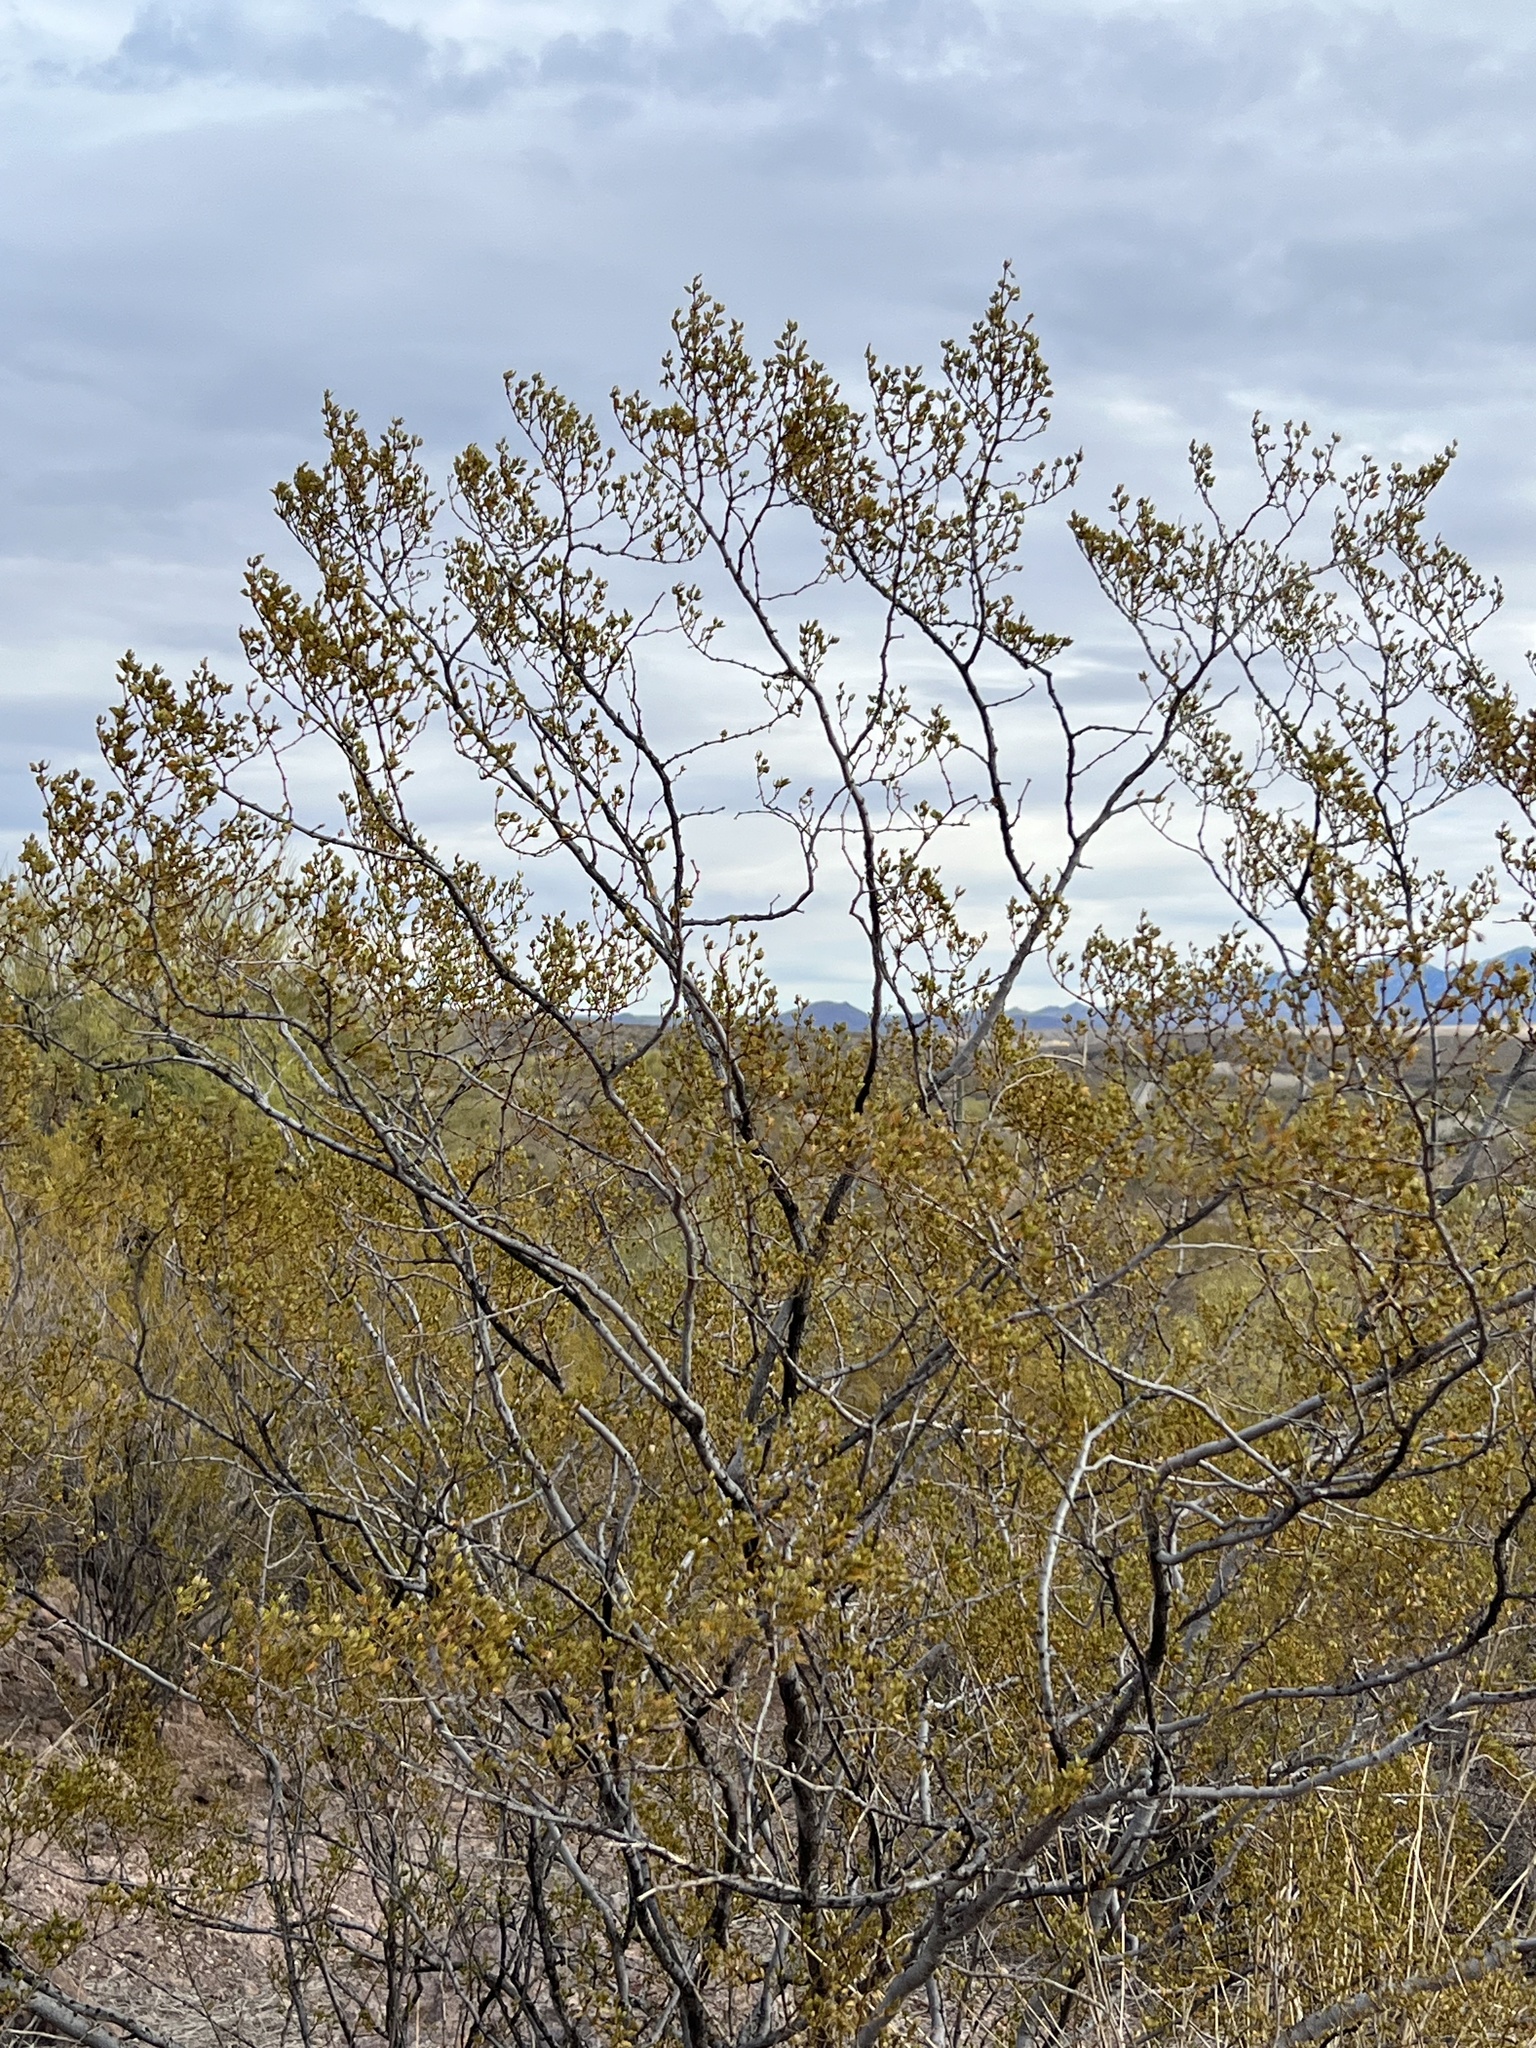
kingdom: Plantae
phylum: Tracheophyta
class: Magnoliopsida
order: Zygophyllales
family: Zygophyllaceae
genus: Larrea
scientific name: Larrea tridentata
